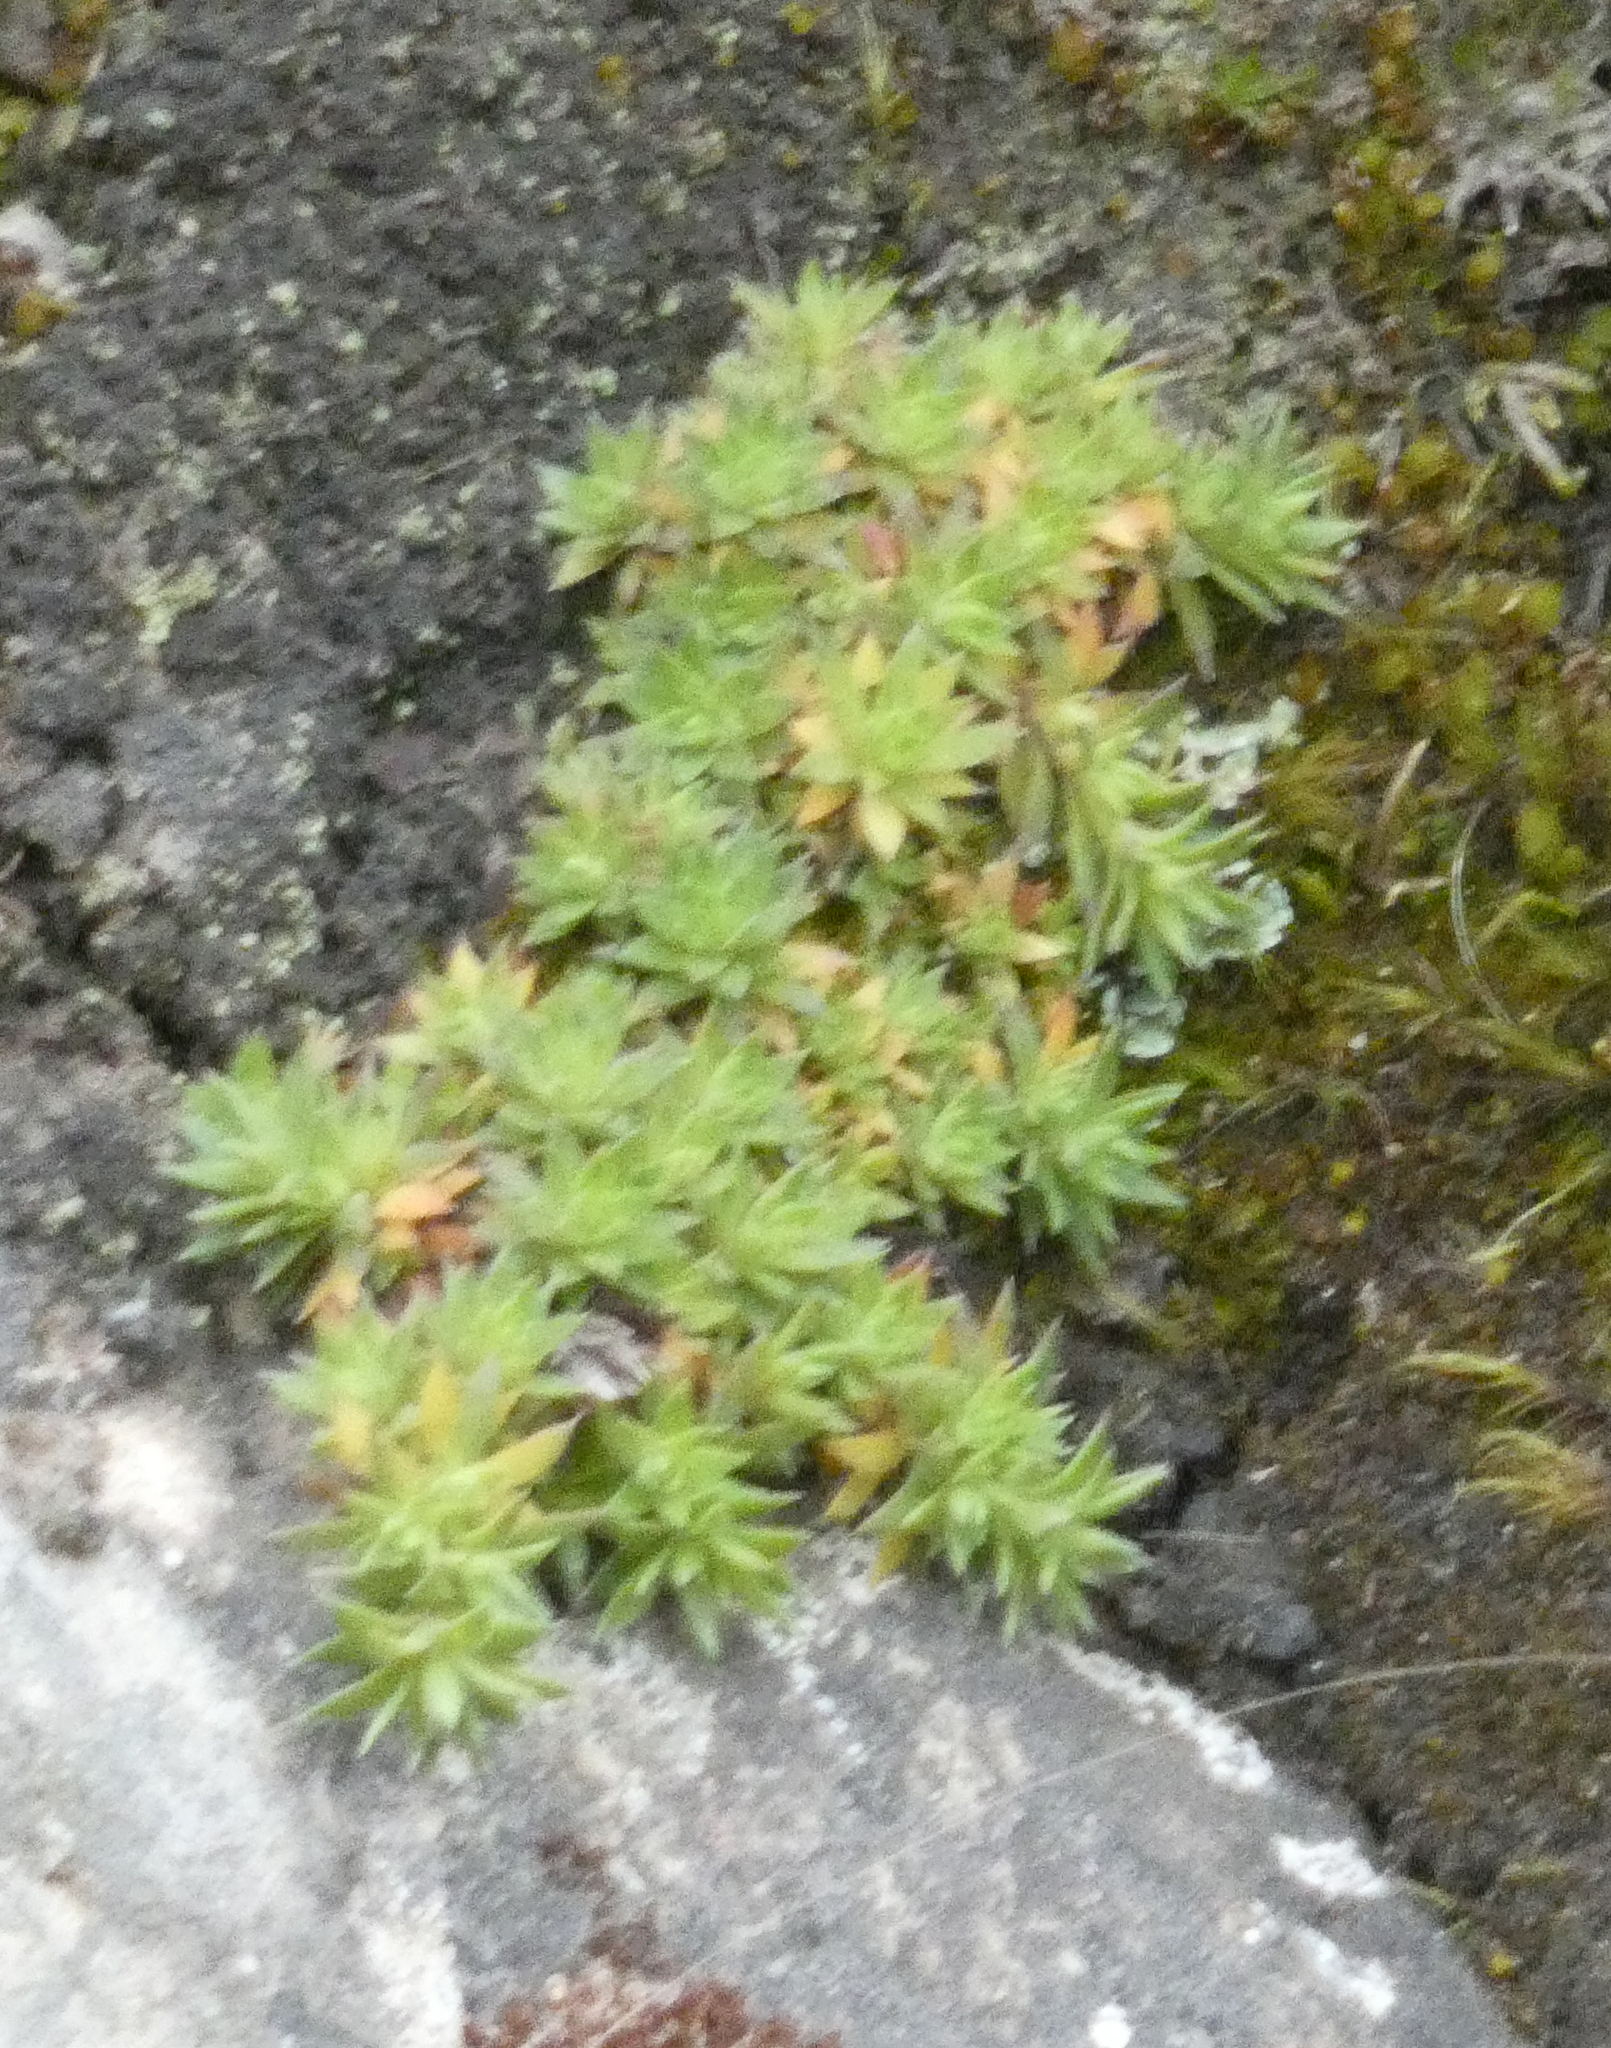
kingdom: Plantae
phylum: Tracheophyta
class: Magnoliopsida
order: Saxifragales
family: Saxifragaceae
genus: Saxifraga
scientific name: Saxifraga bronchialis
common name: Matted saxifrage
